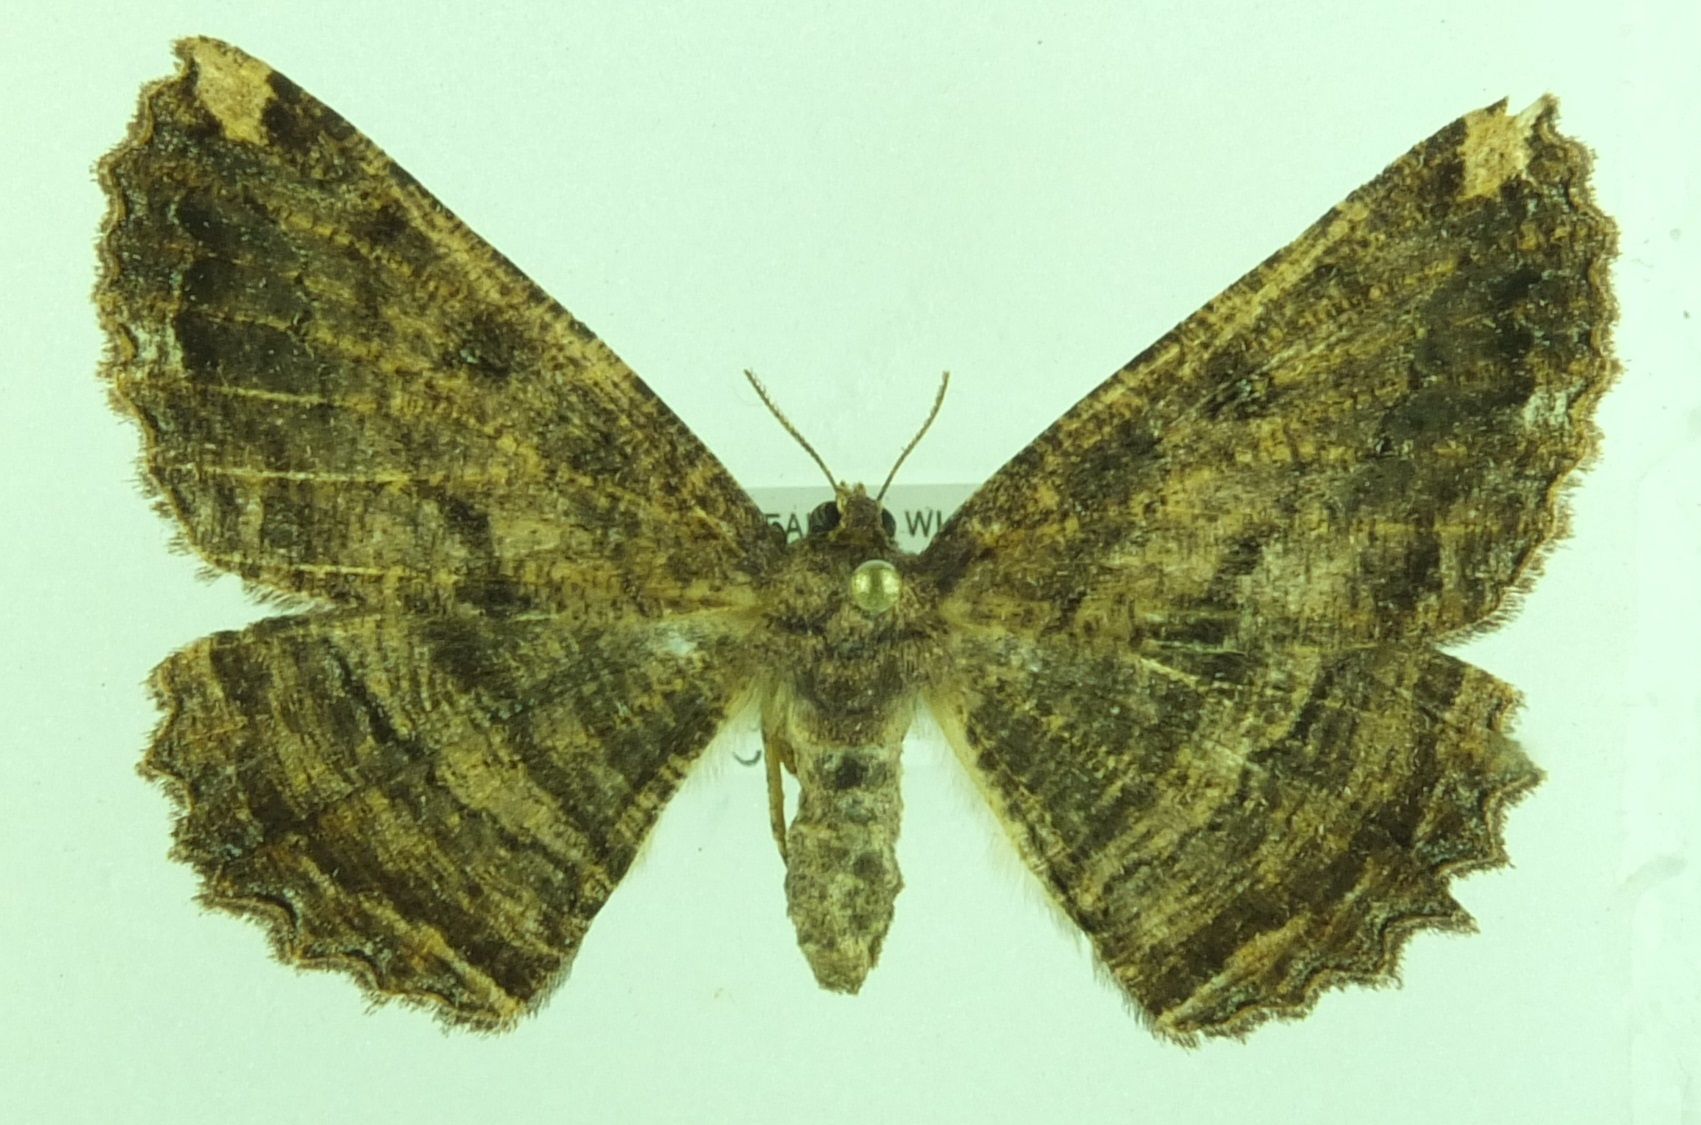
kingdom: Animalia
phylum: Arthropoda
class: Insecta
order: Lepidoptera
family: Geometridae
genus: Gellonia
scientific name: Gellonia dejectaria
